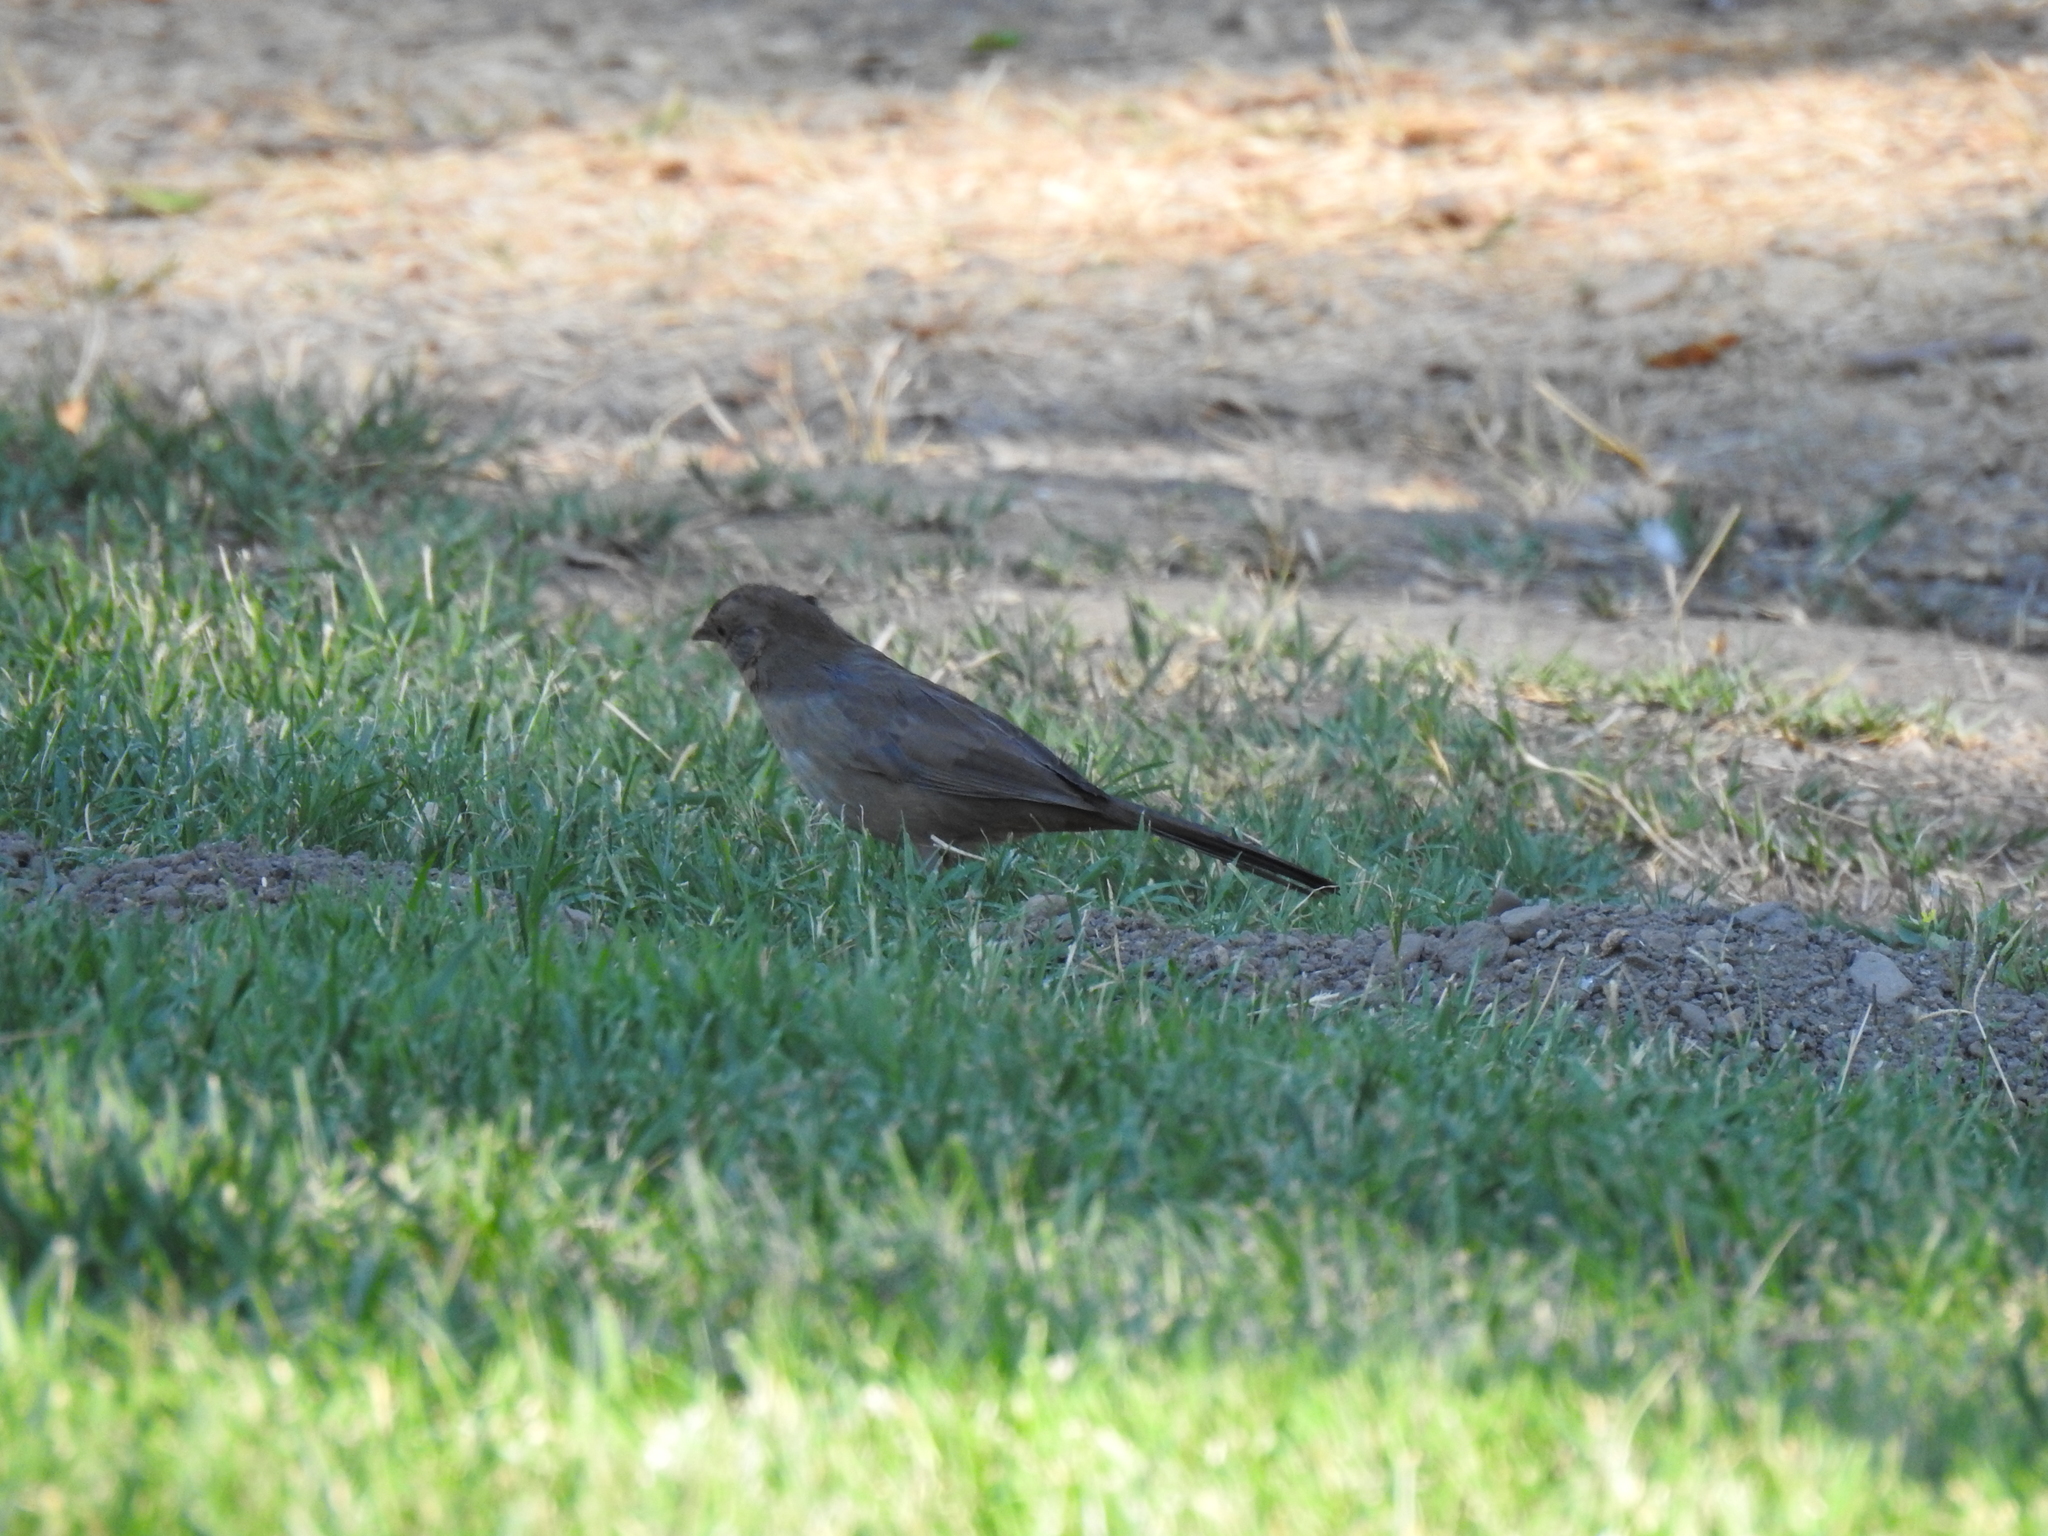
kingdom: Animalia
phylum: Chordata
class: Aves
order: Passeriformes
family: Passerellidae
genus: Melozone
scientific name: Melozone crissalis
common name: California towhee
